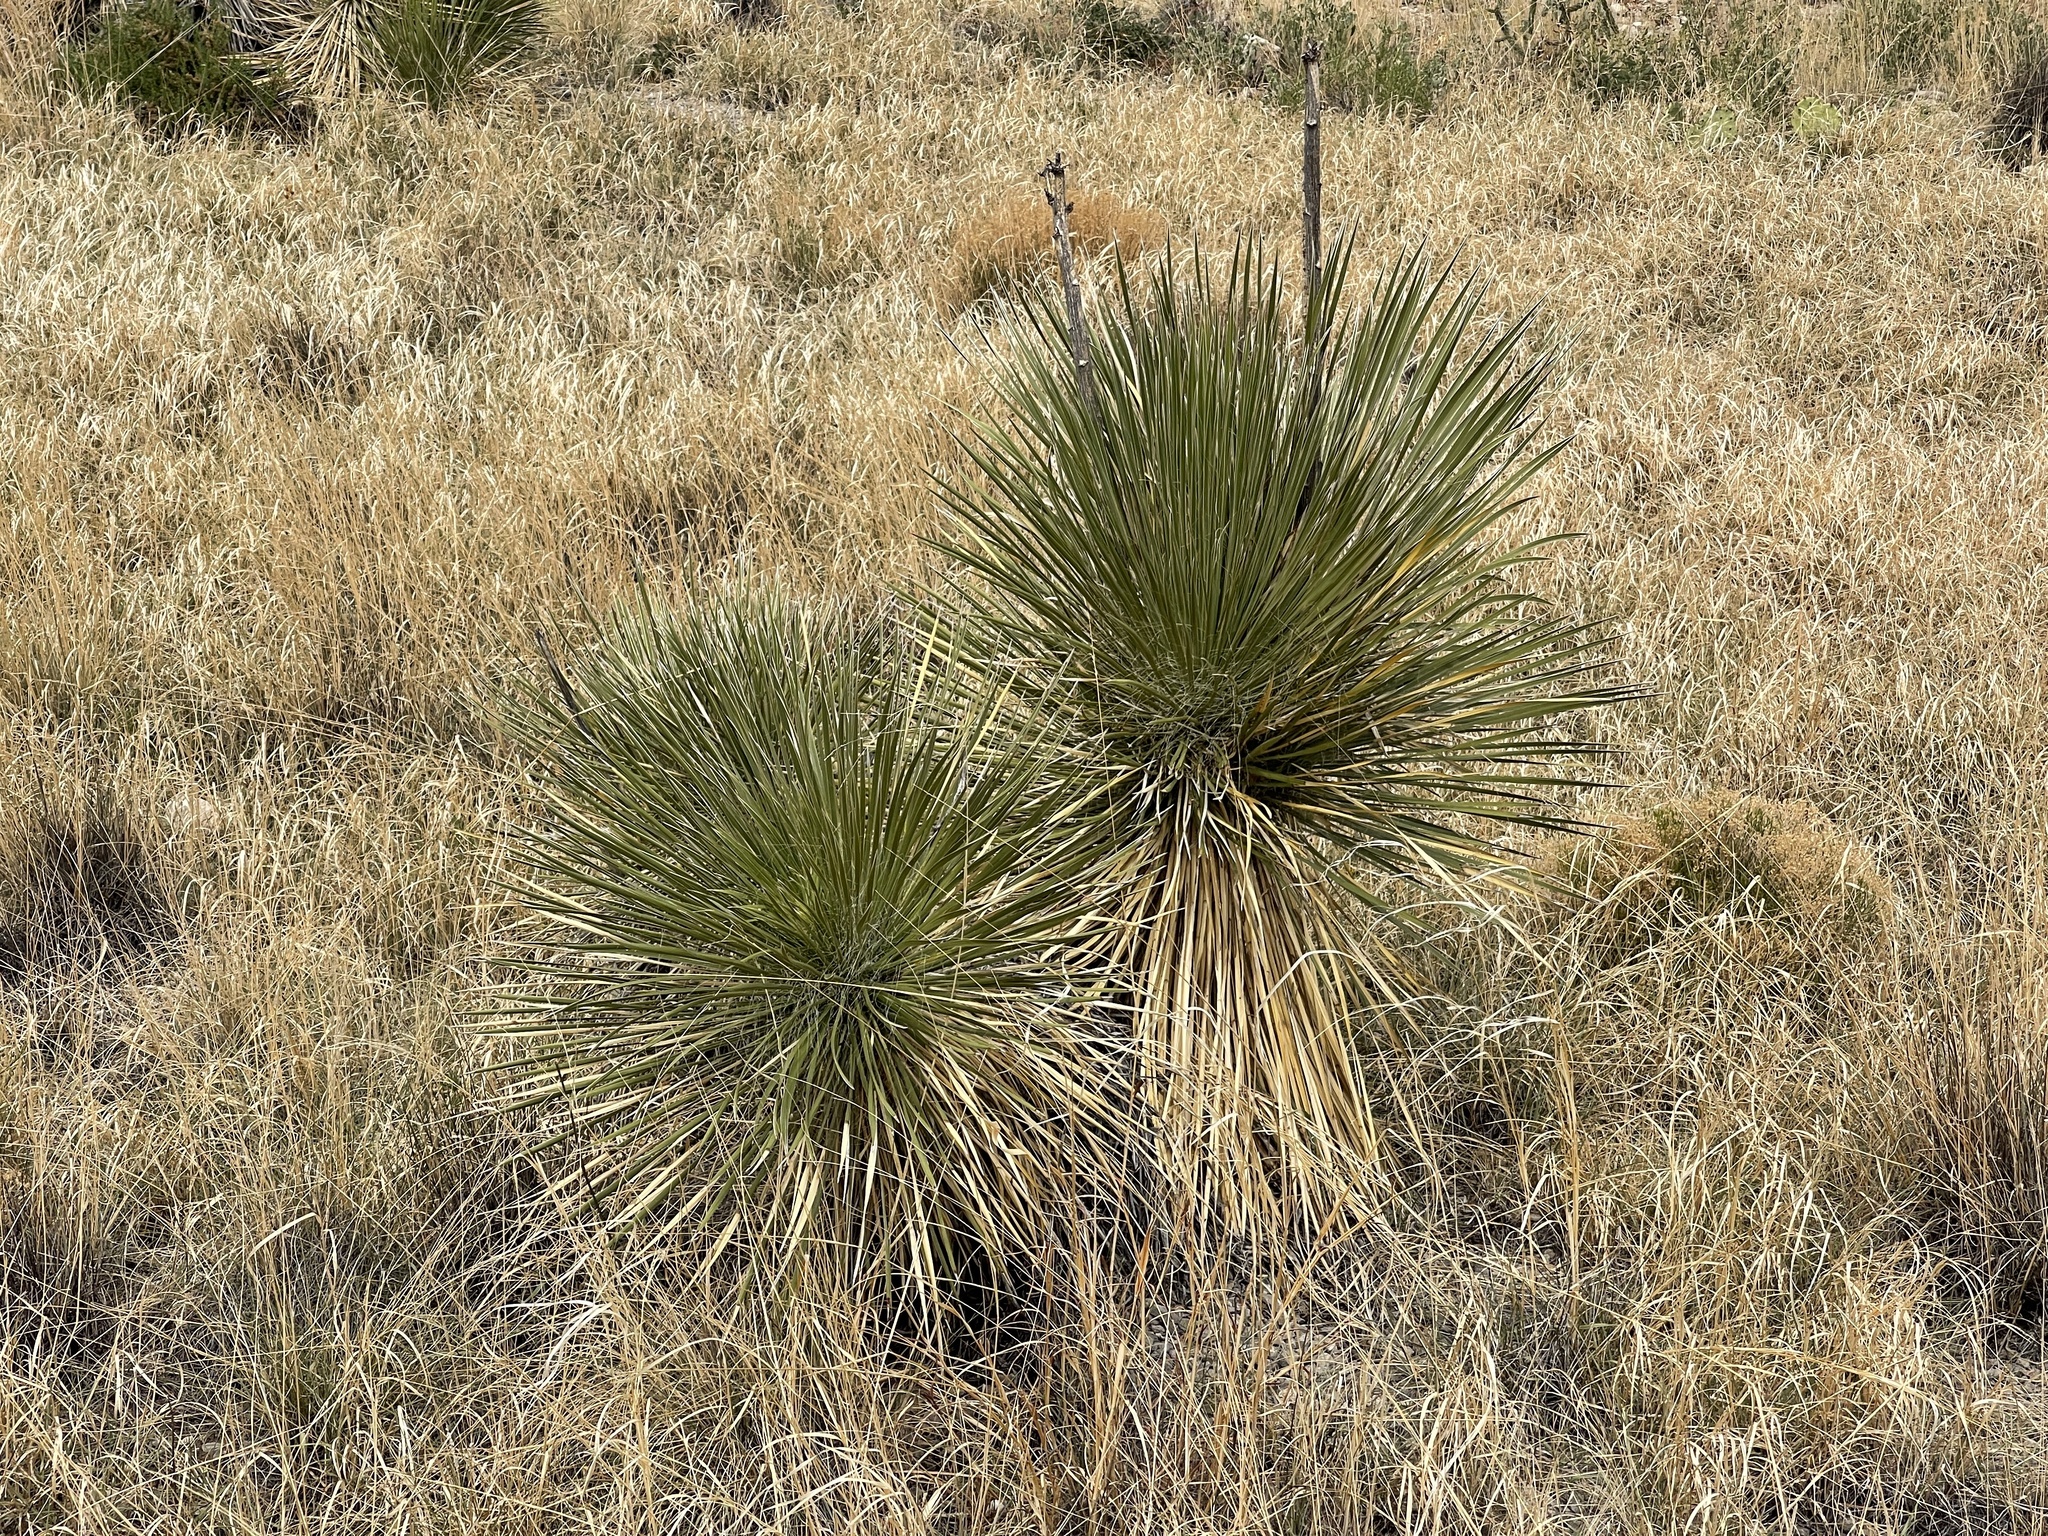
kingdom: Plantae
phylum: Tracheophyta
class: Liliopsida
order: Asparagales
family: Asparagaceae
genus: Yucca
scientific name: Yucca elata
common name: Palmella
